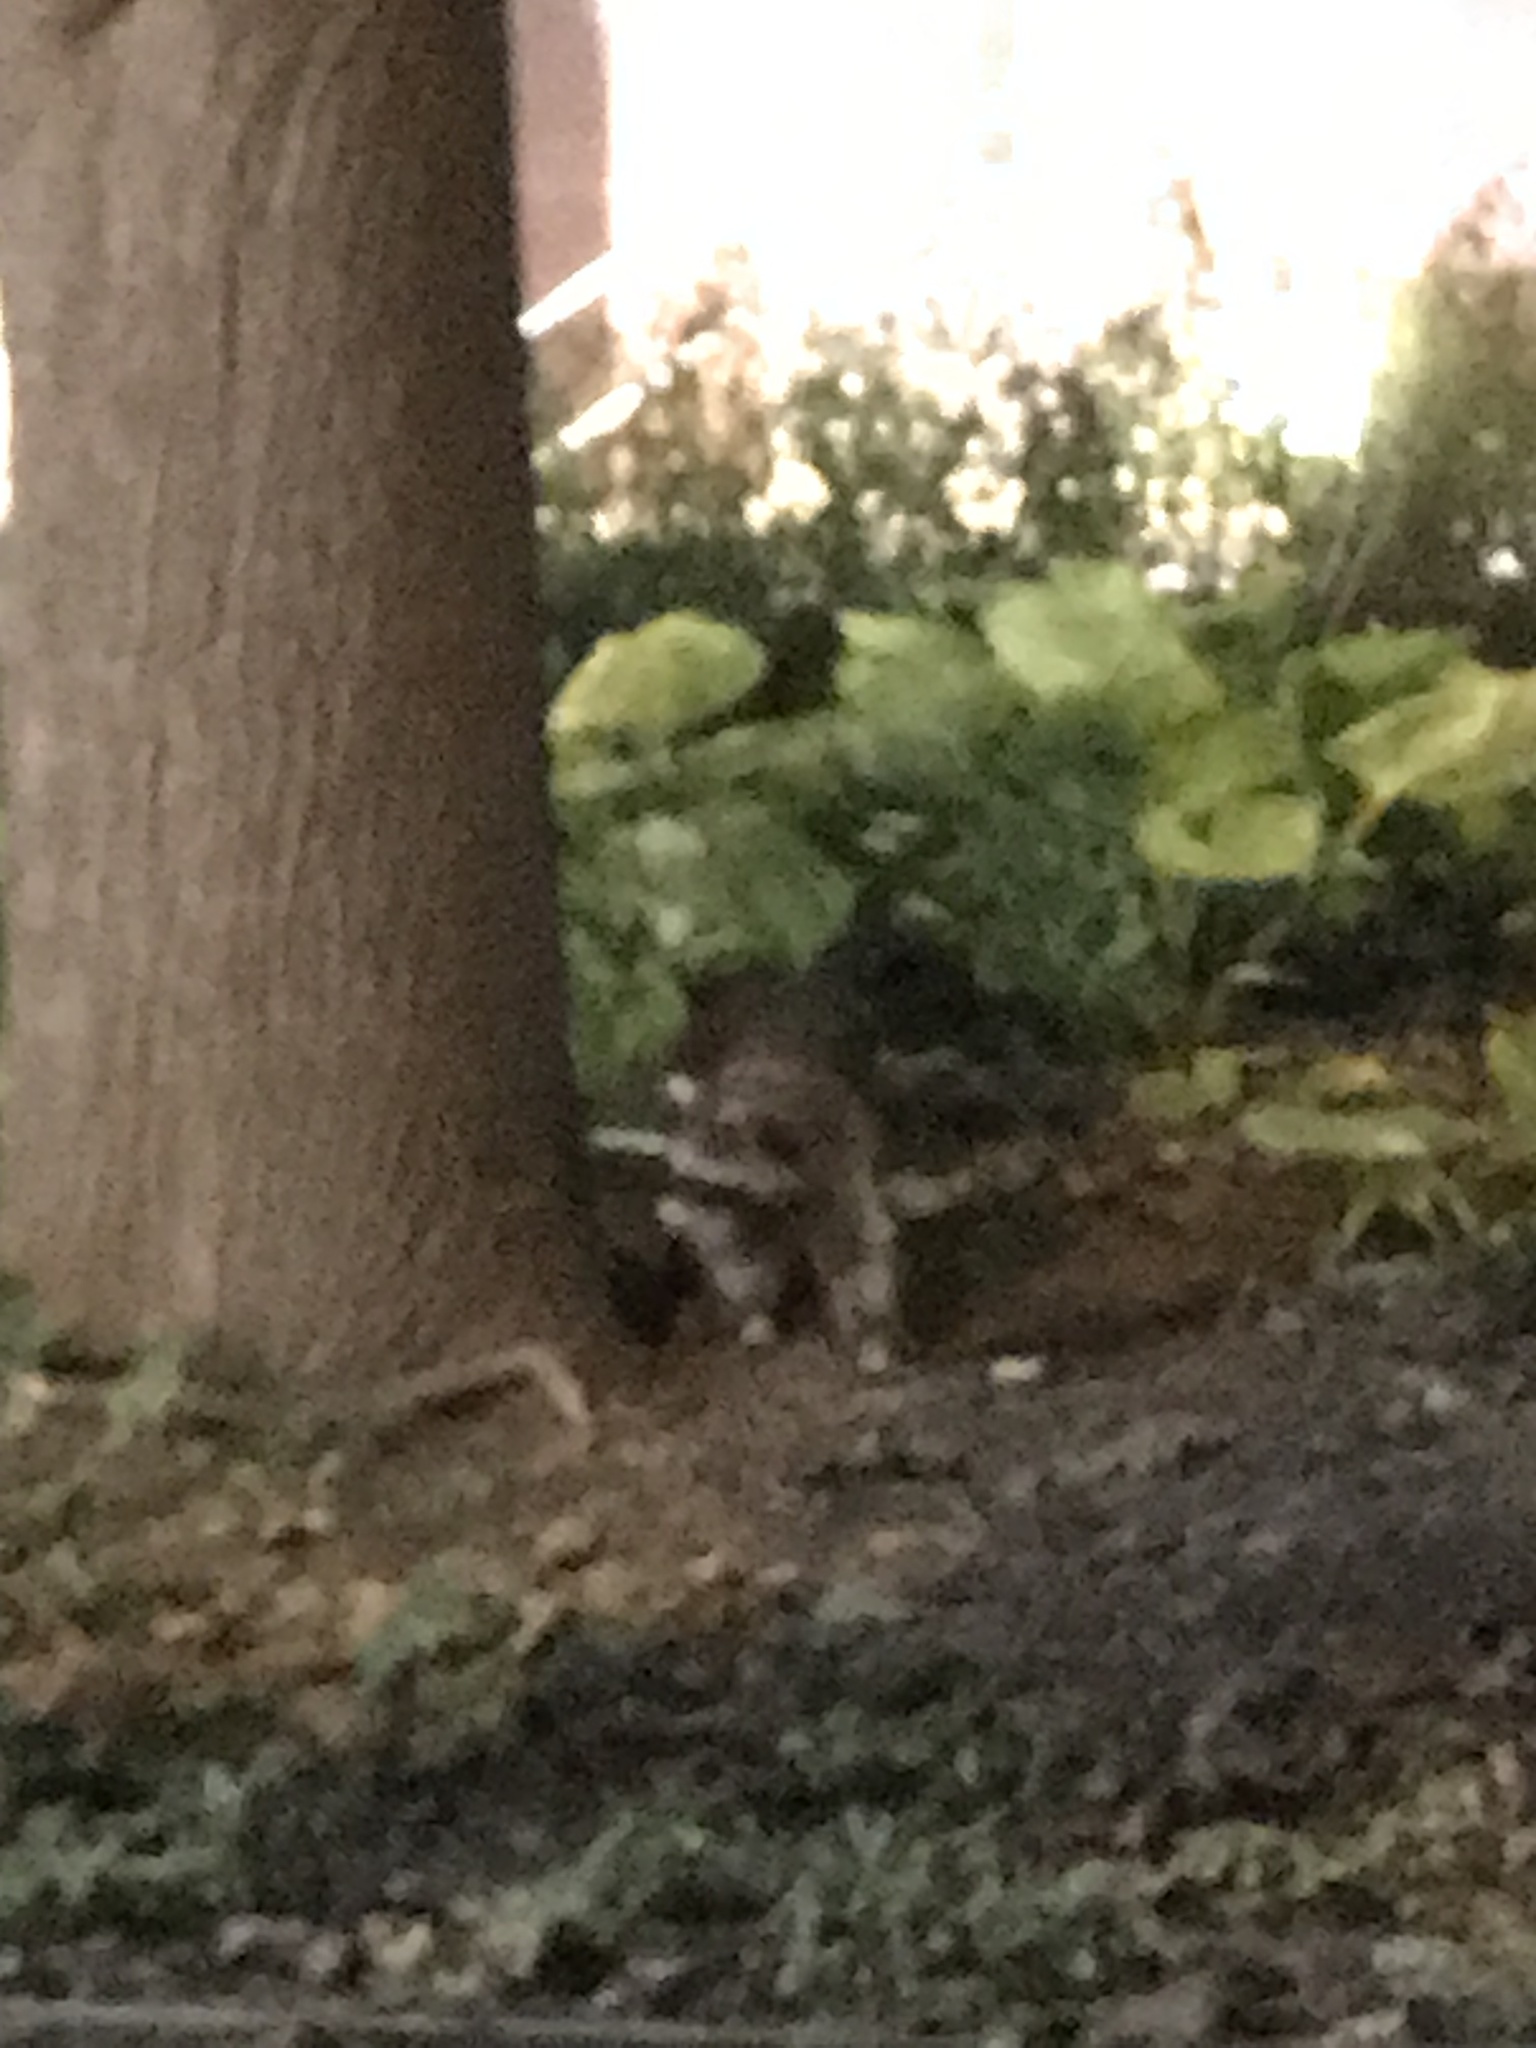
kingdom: Animalia
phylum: Chordata
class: Mammalia
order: Carnivora
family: Procyonidae
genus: Procyon
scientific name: Procyon lotor
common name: Raccoon
